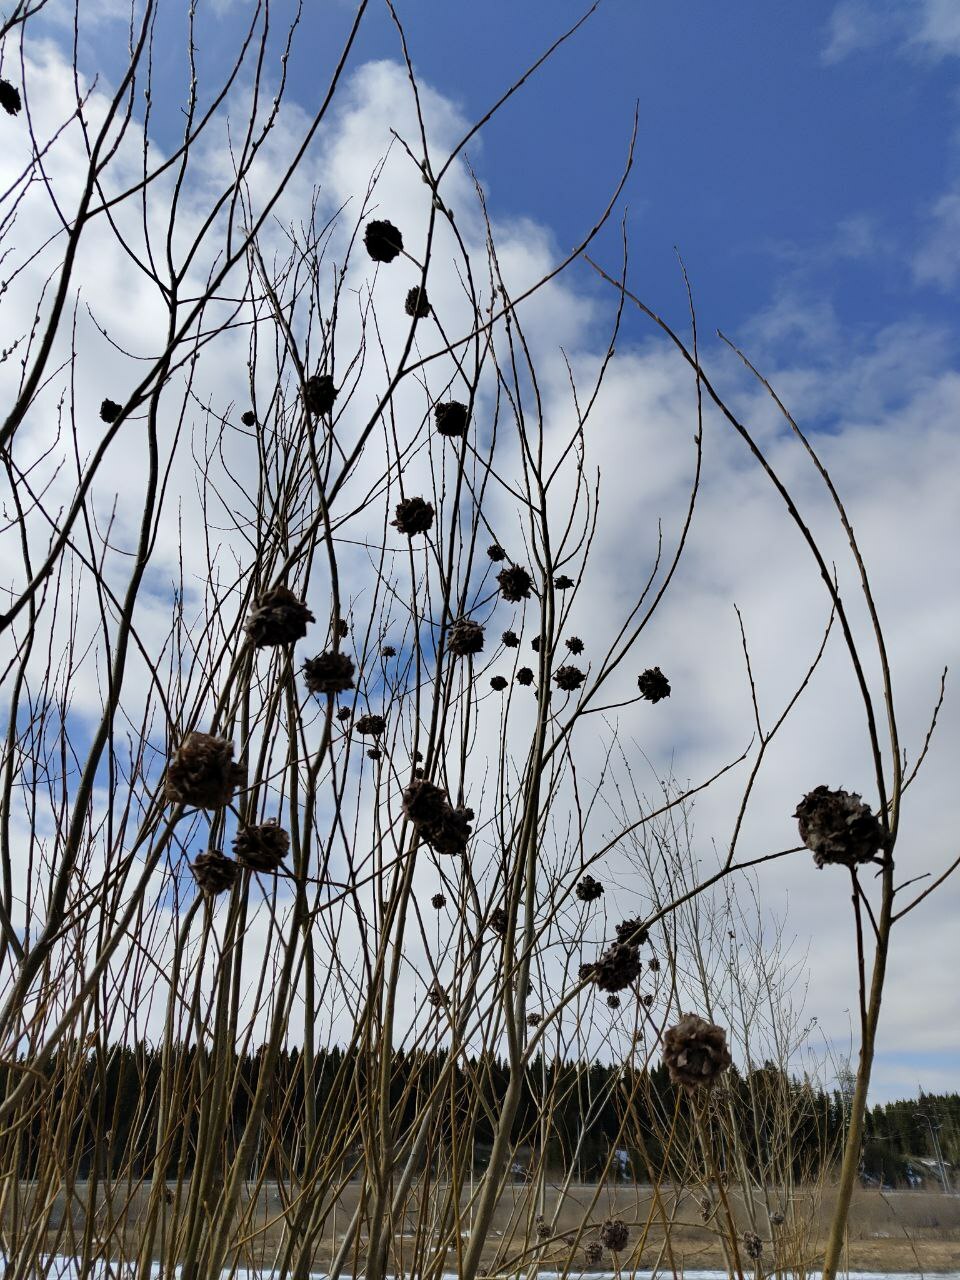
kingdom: Animalia
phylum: Arthropoda
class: Insecta
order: Diptera
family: Cecidomyiidae
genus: Rabdophaga
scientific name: Rabdophaga rosaria
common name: Willow rose gall midge
